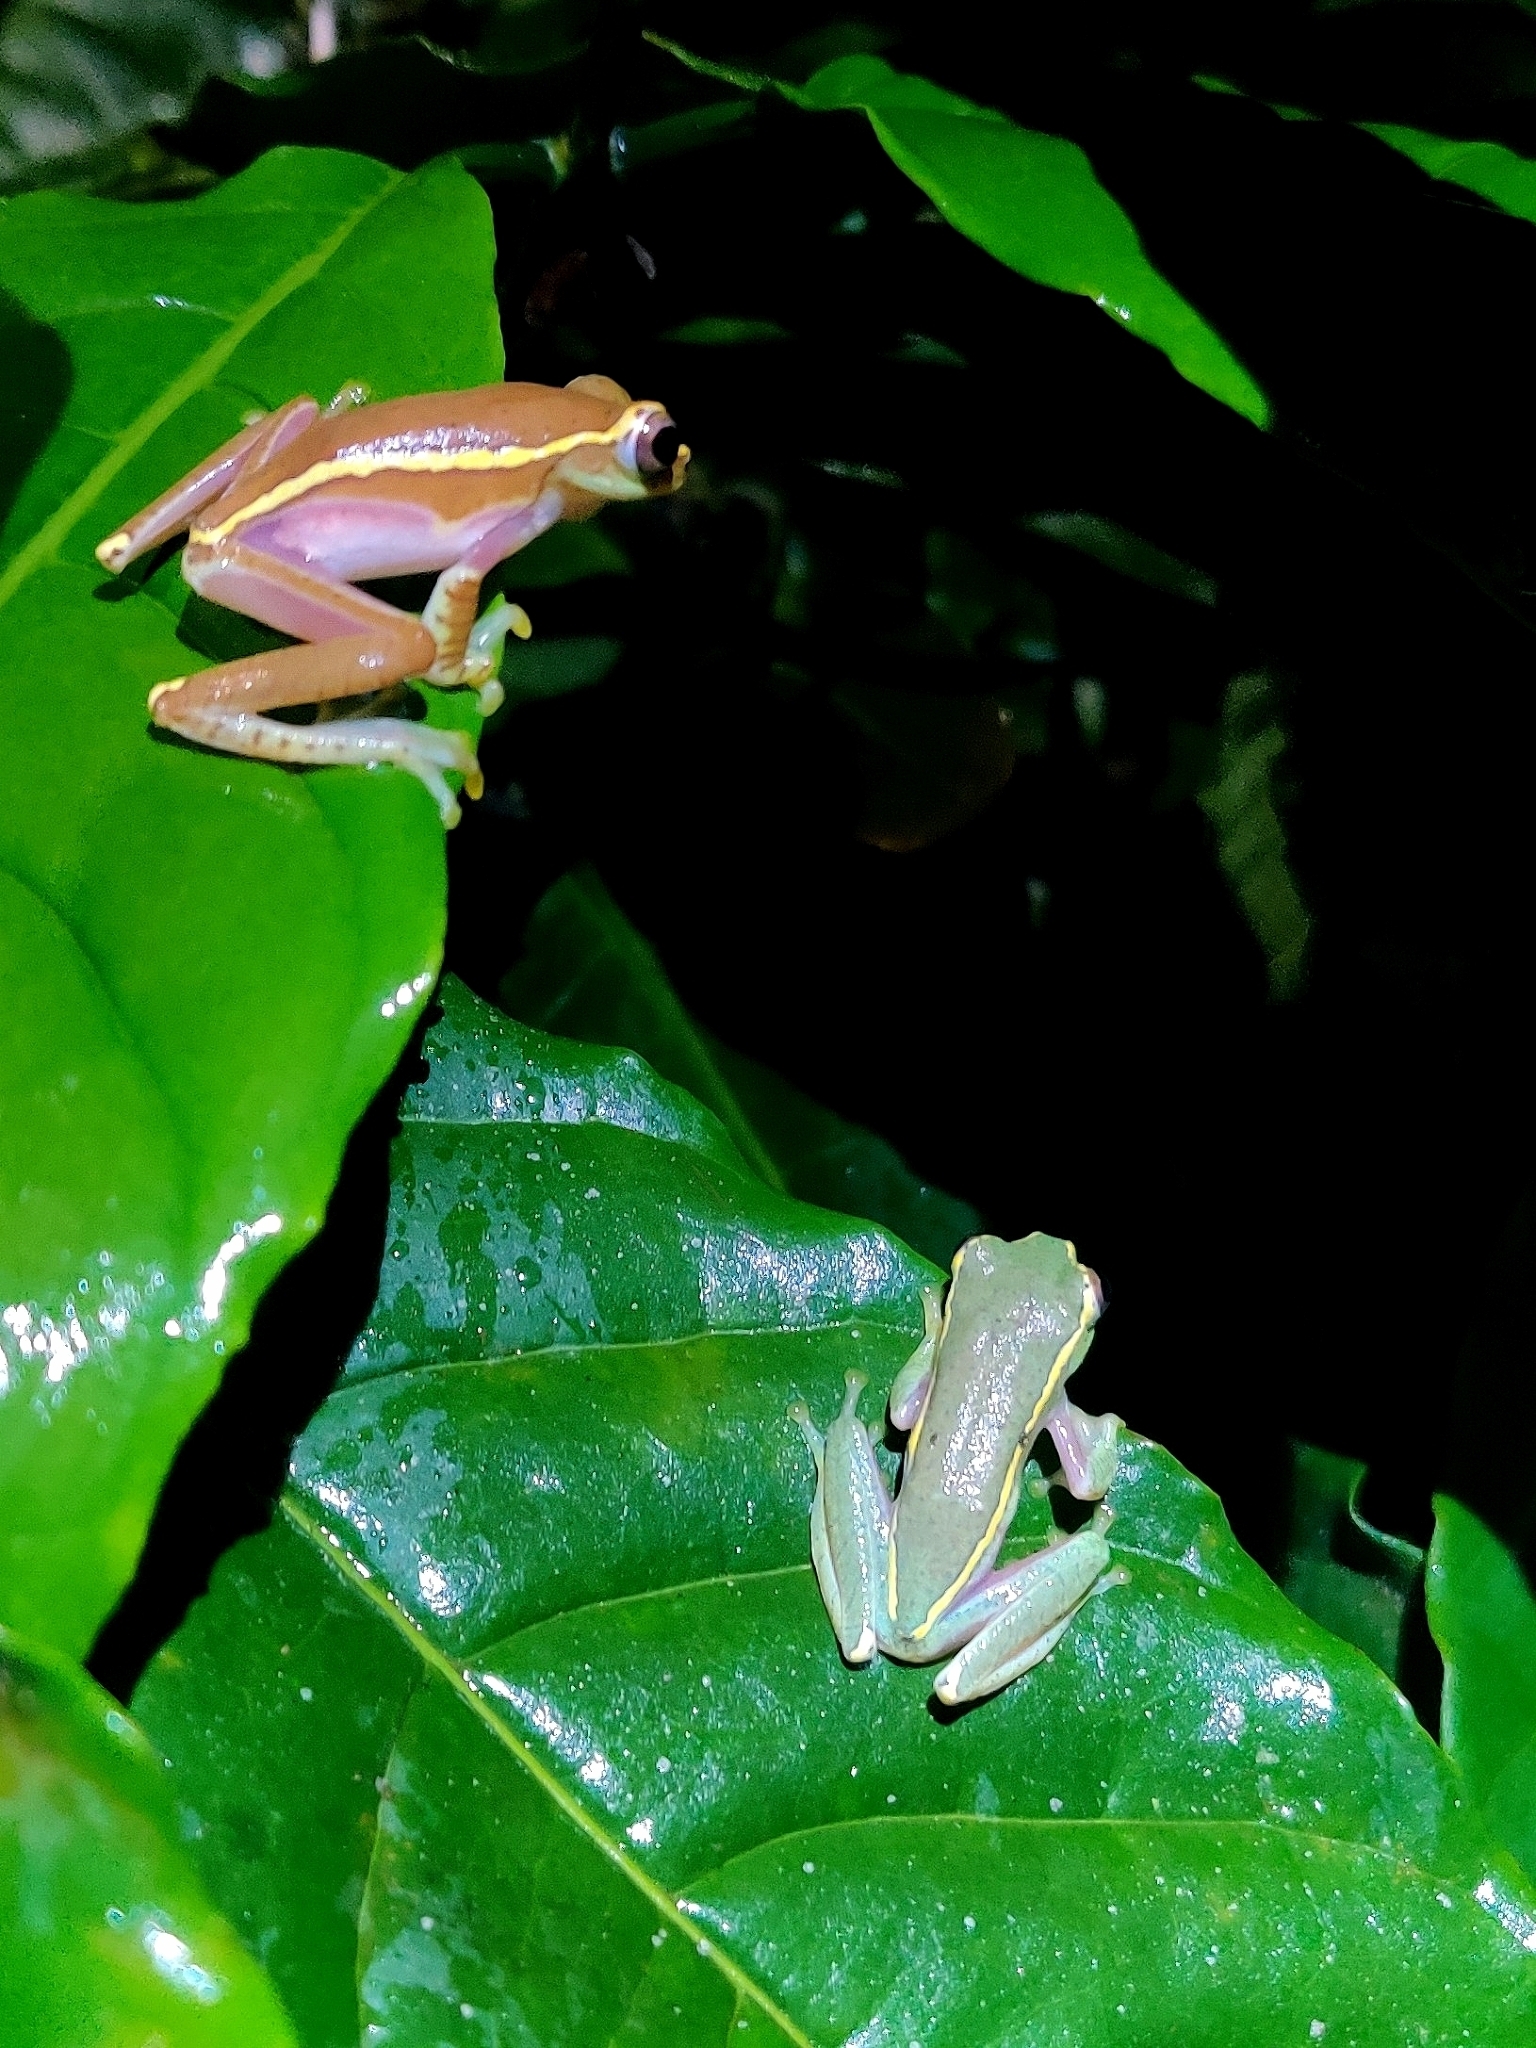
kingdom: Animalia
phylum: Chordata
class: Amphibia
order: Anura
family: Rhacophoridae
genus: Rhacophorus
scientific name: Rhacophorus lateralis
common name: Boulenger's tree frog
